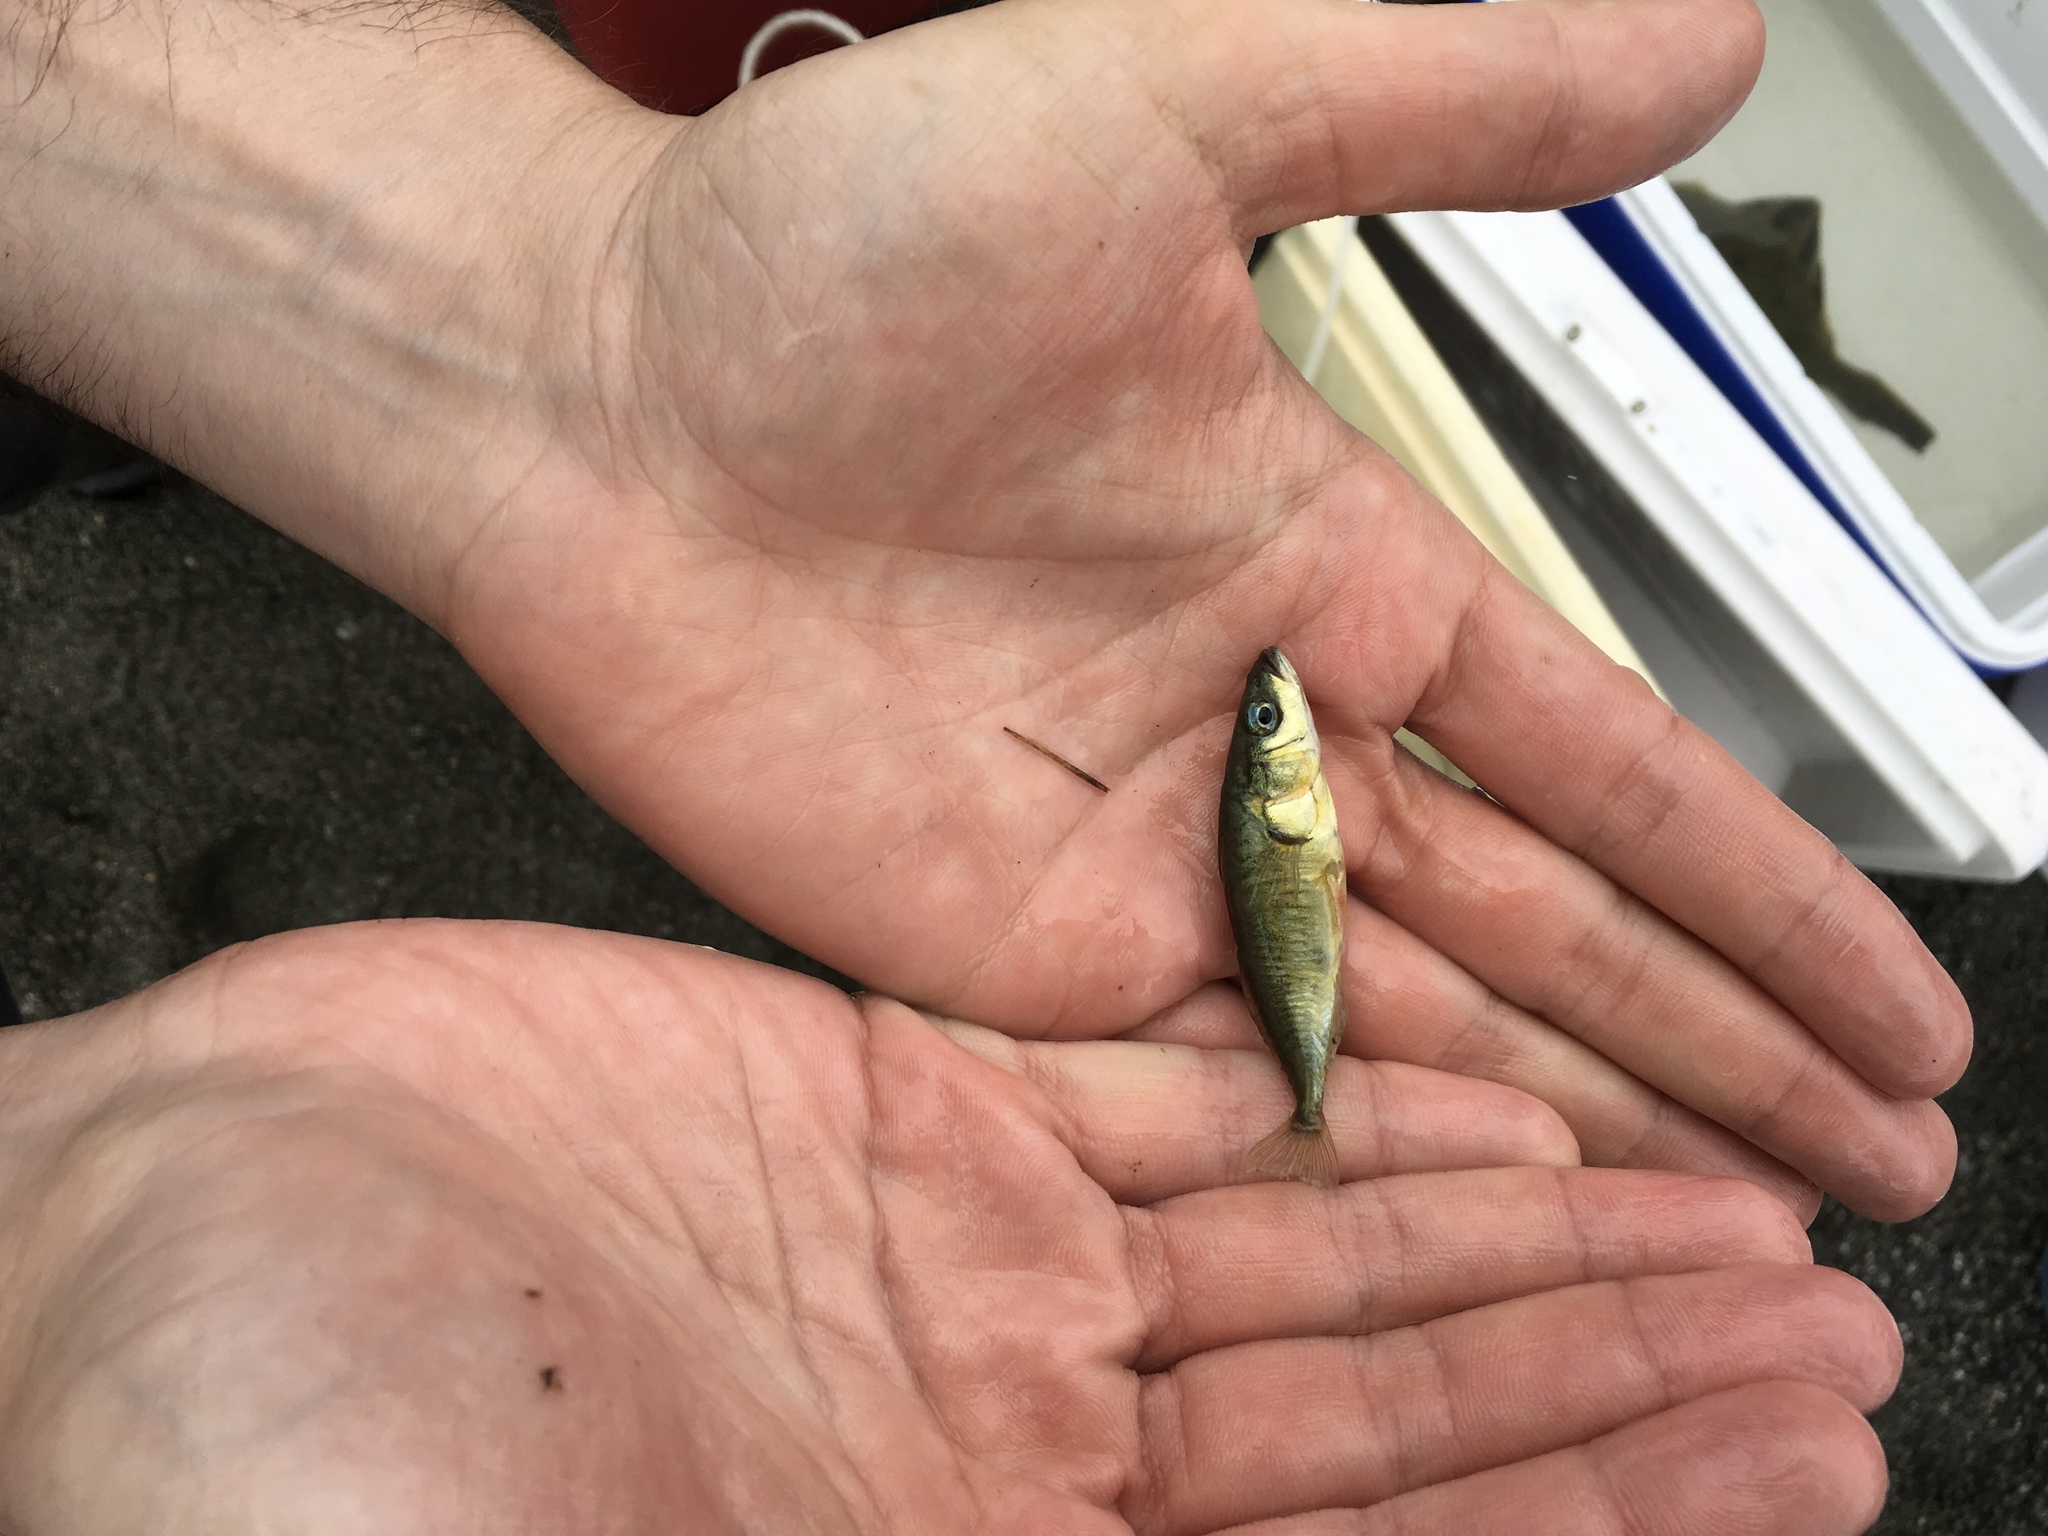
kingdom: Animalia
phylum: Chordata
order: Gasterosteiformes
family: Gasterosteidae
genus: Gasterosteus
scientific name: Gasterosteus aculeatus
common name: Three-spined stickleback
